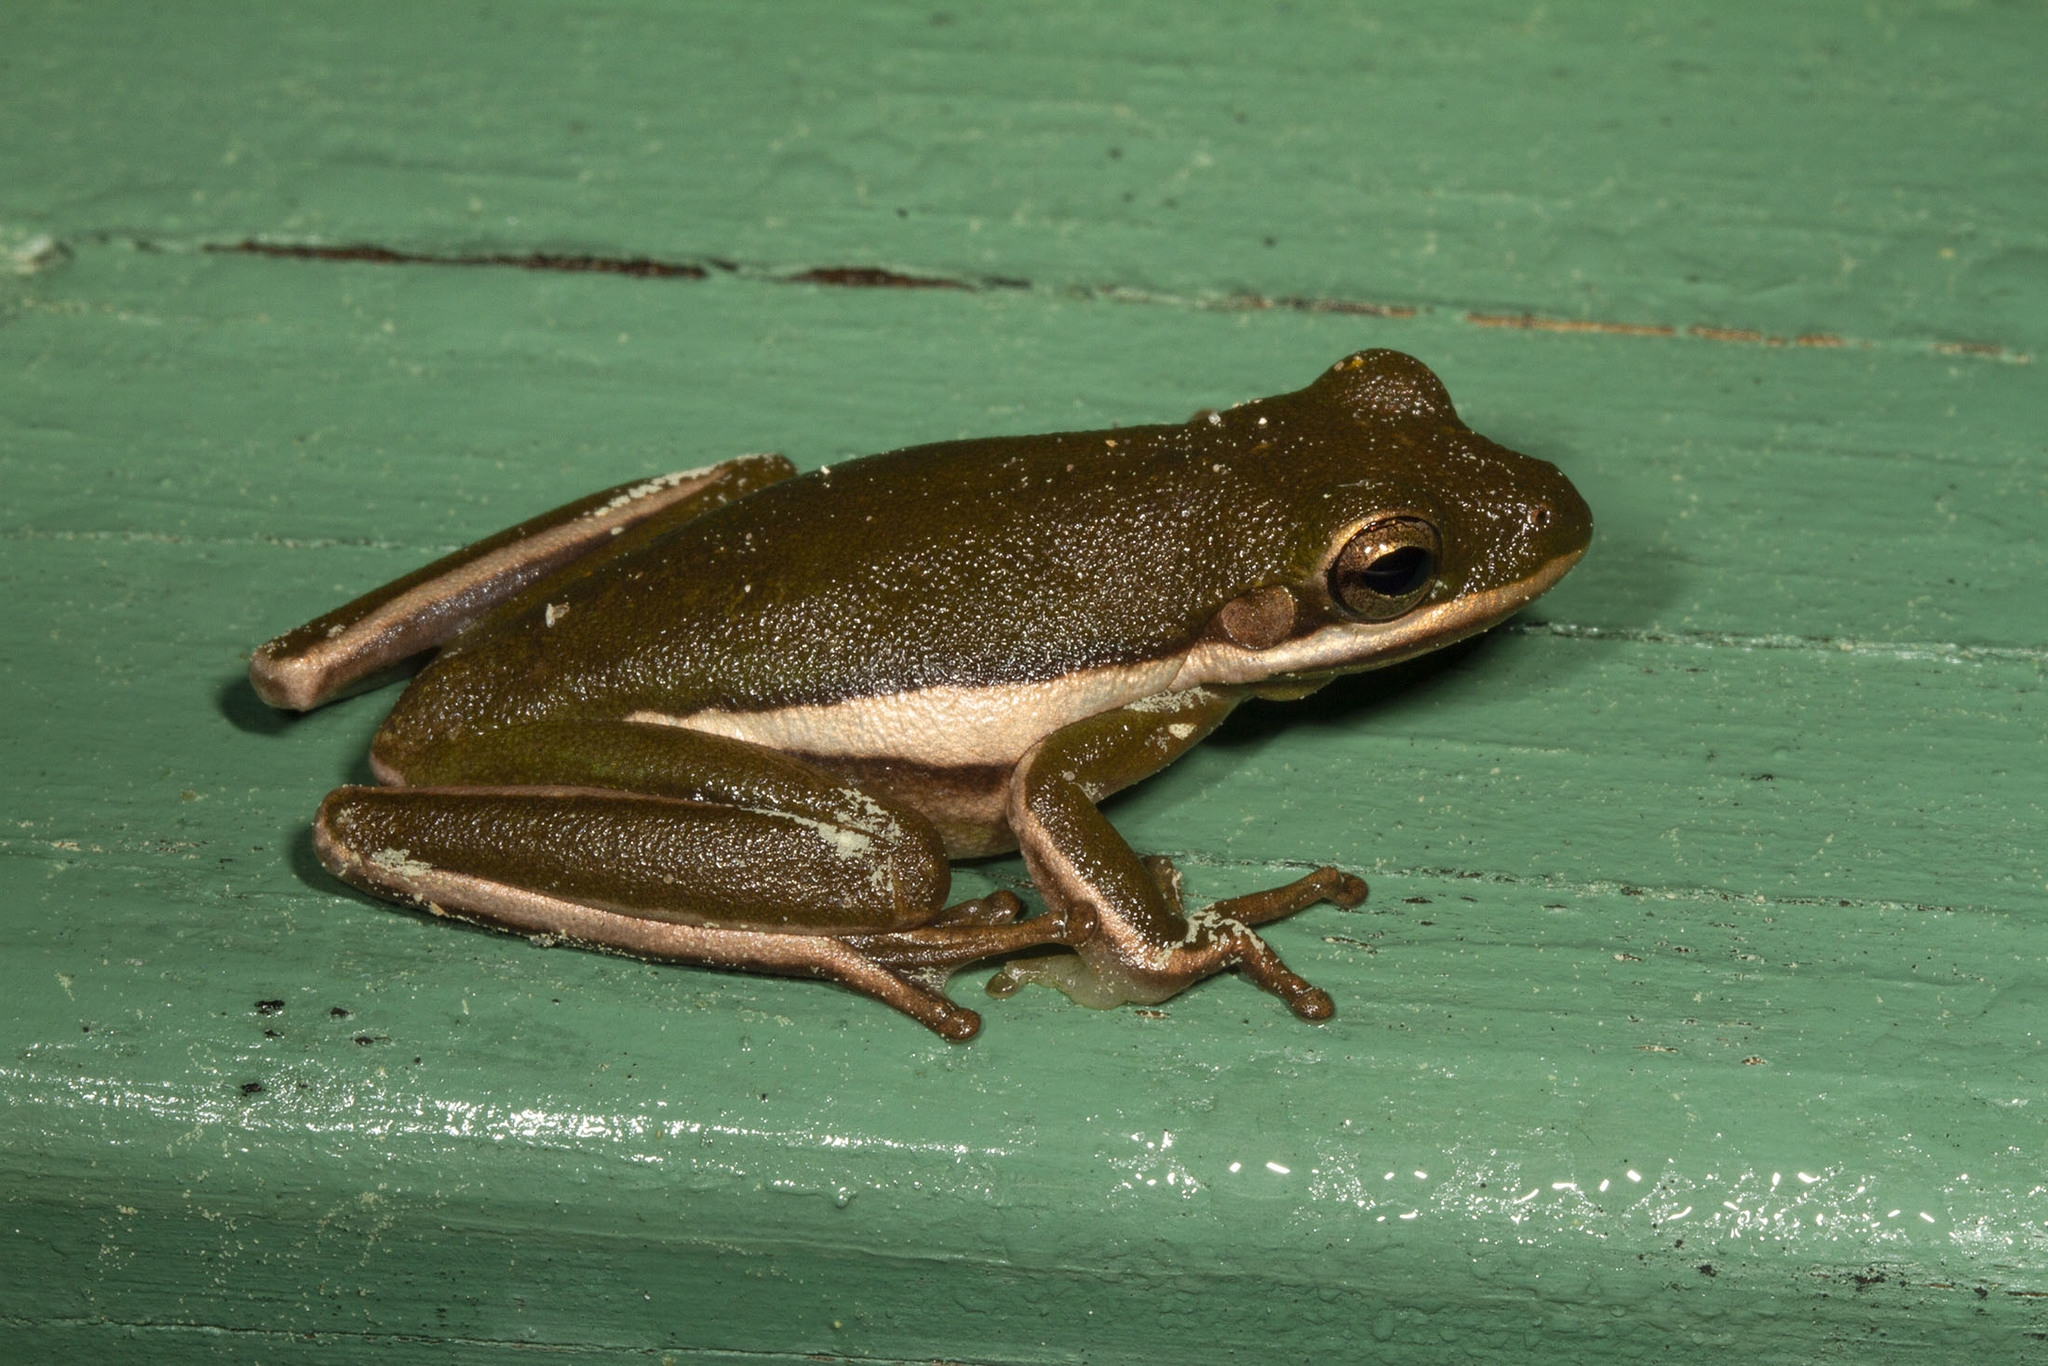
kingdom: Animalia
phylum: Chordata
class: Amphibia
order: Anura
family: Hylidae
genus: Dryophytes
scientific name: Dryophytes cinereus
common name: Green treefrog
